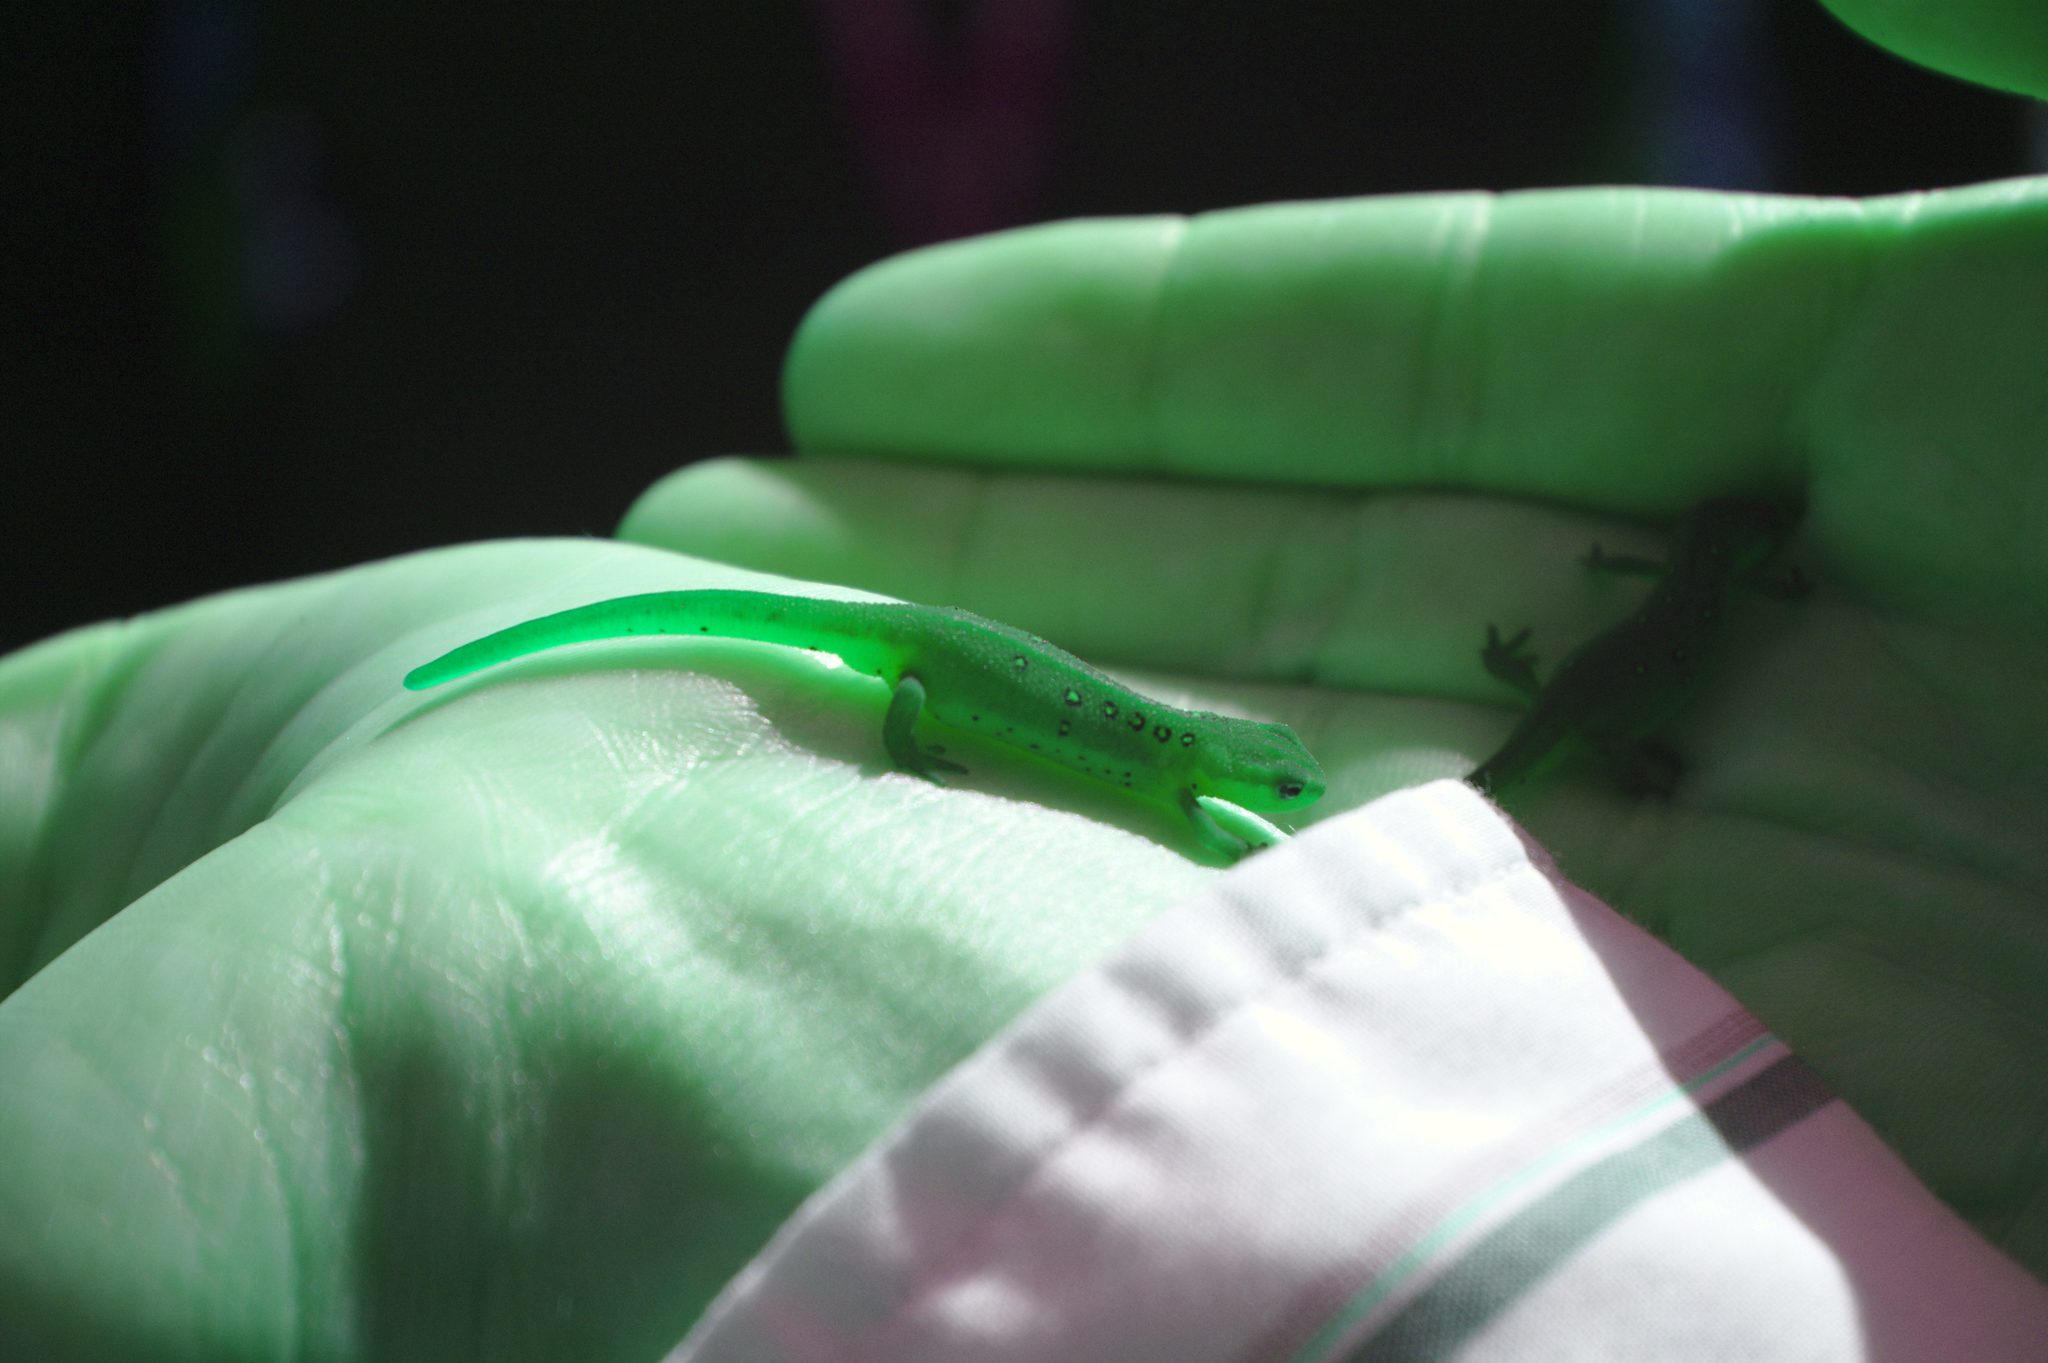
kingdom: Animalia
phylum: Chordata
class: Amphibia
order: Caudata
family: Salamandridae
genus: Notophthalmus
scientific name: Notophthalmus viridescens
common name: Eastern newt
